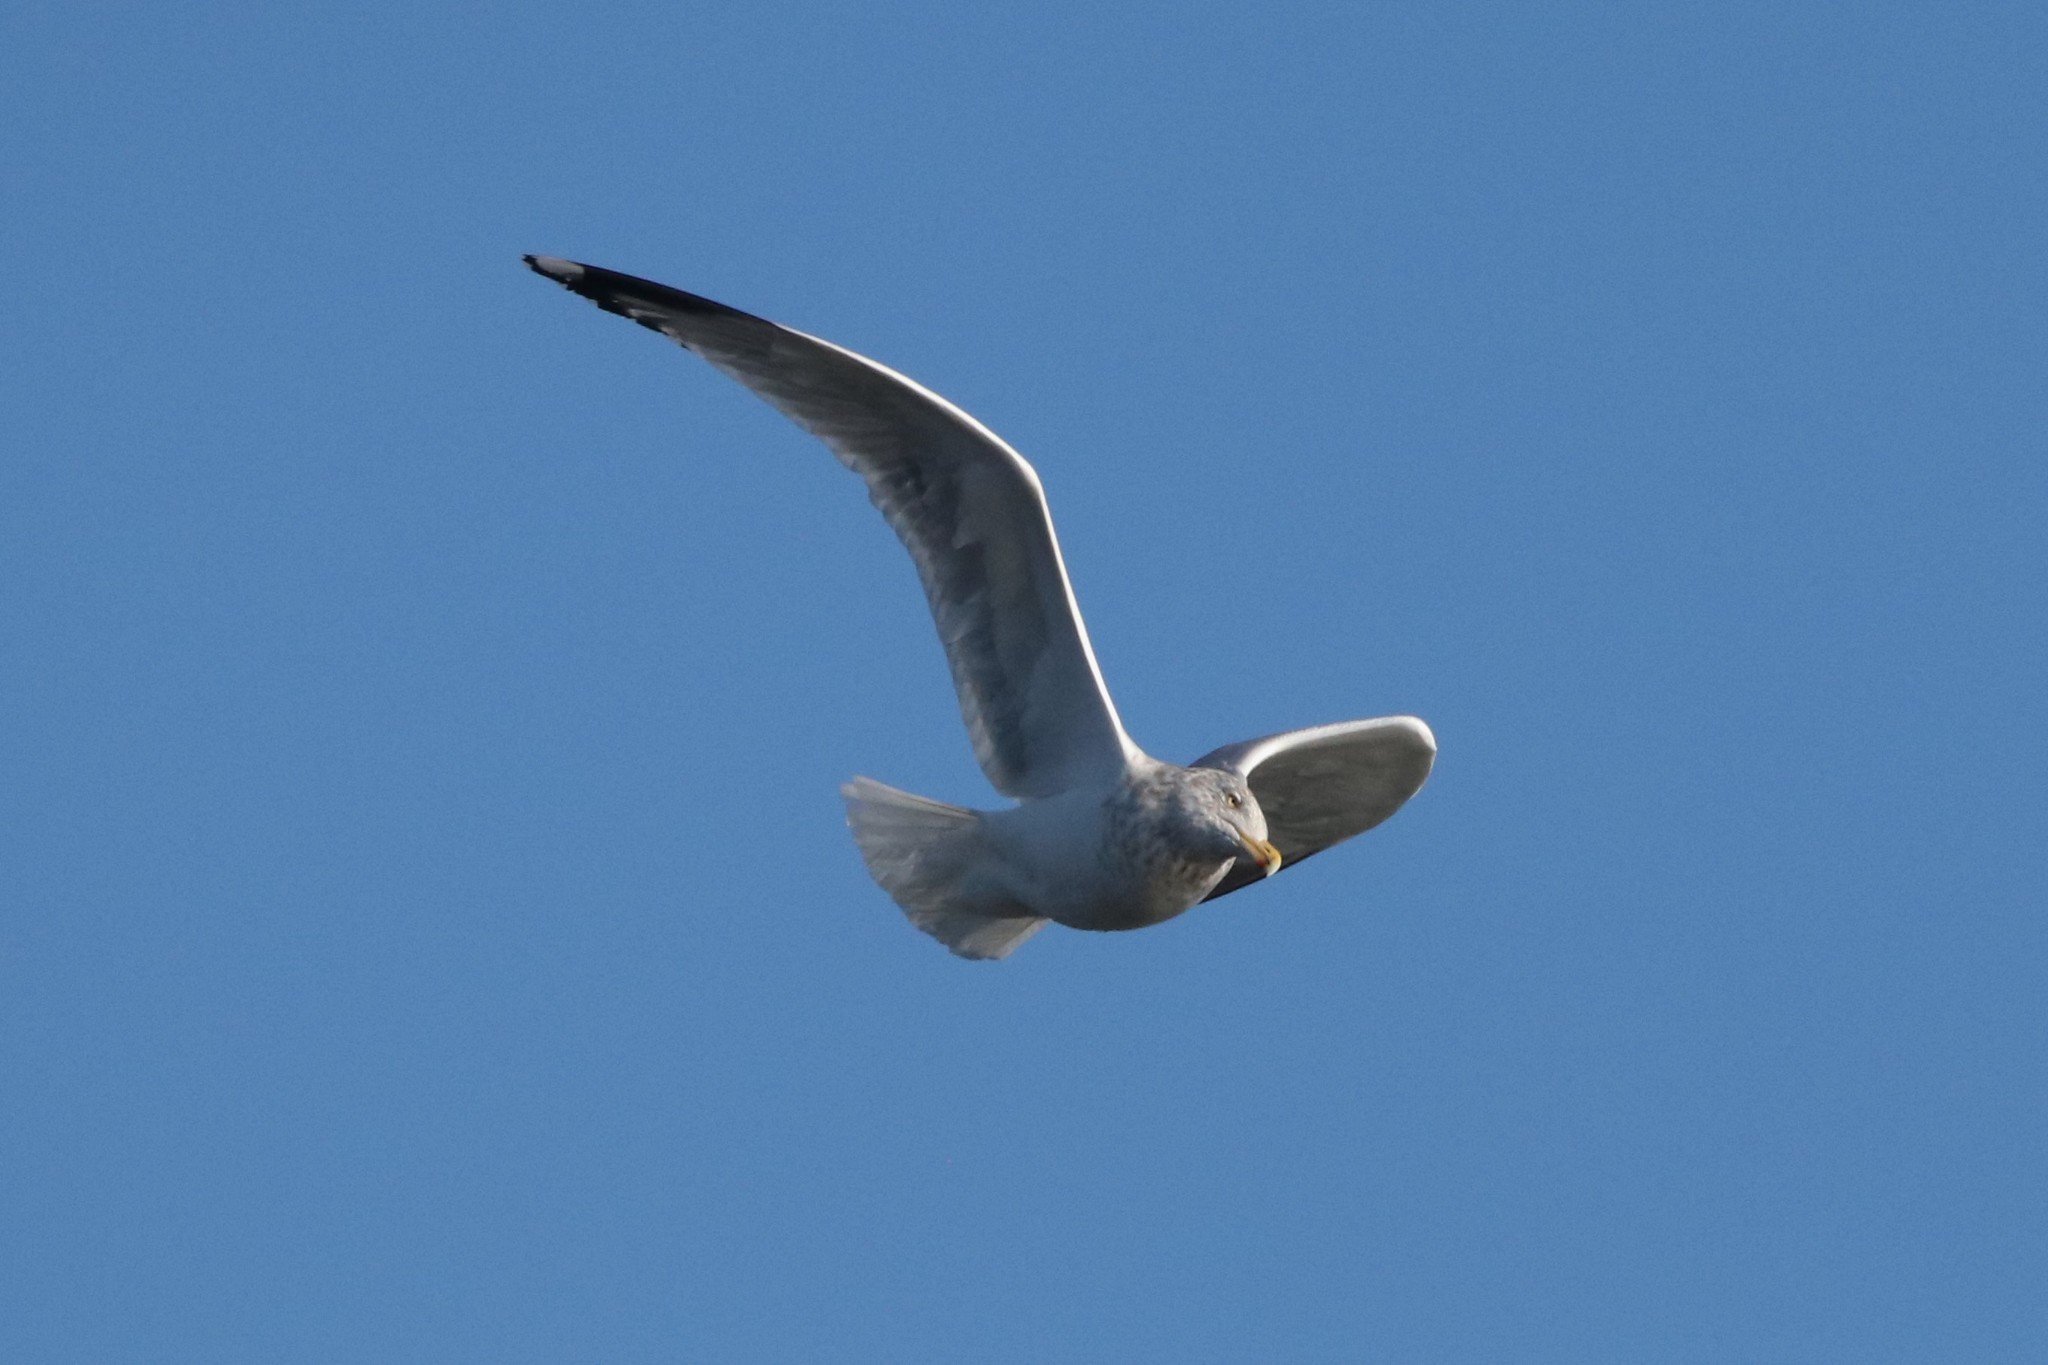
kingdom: Animalia
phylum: Chordata
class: Aves
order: Charadriiformes
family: Laridae
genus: Larus
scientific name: Larus argentatus
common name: Herring gull
